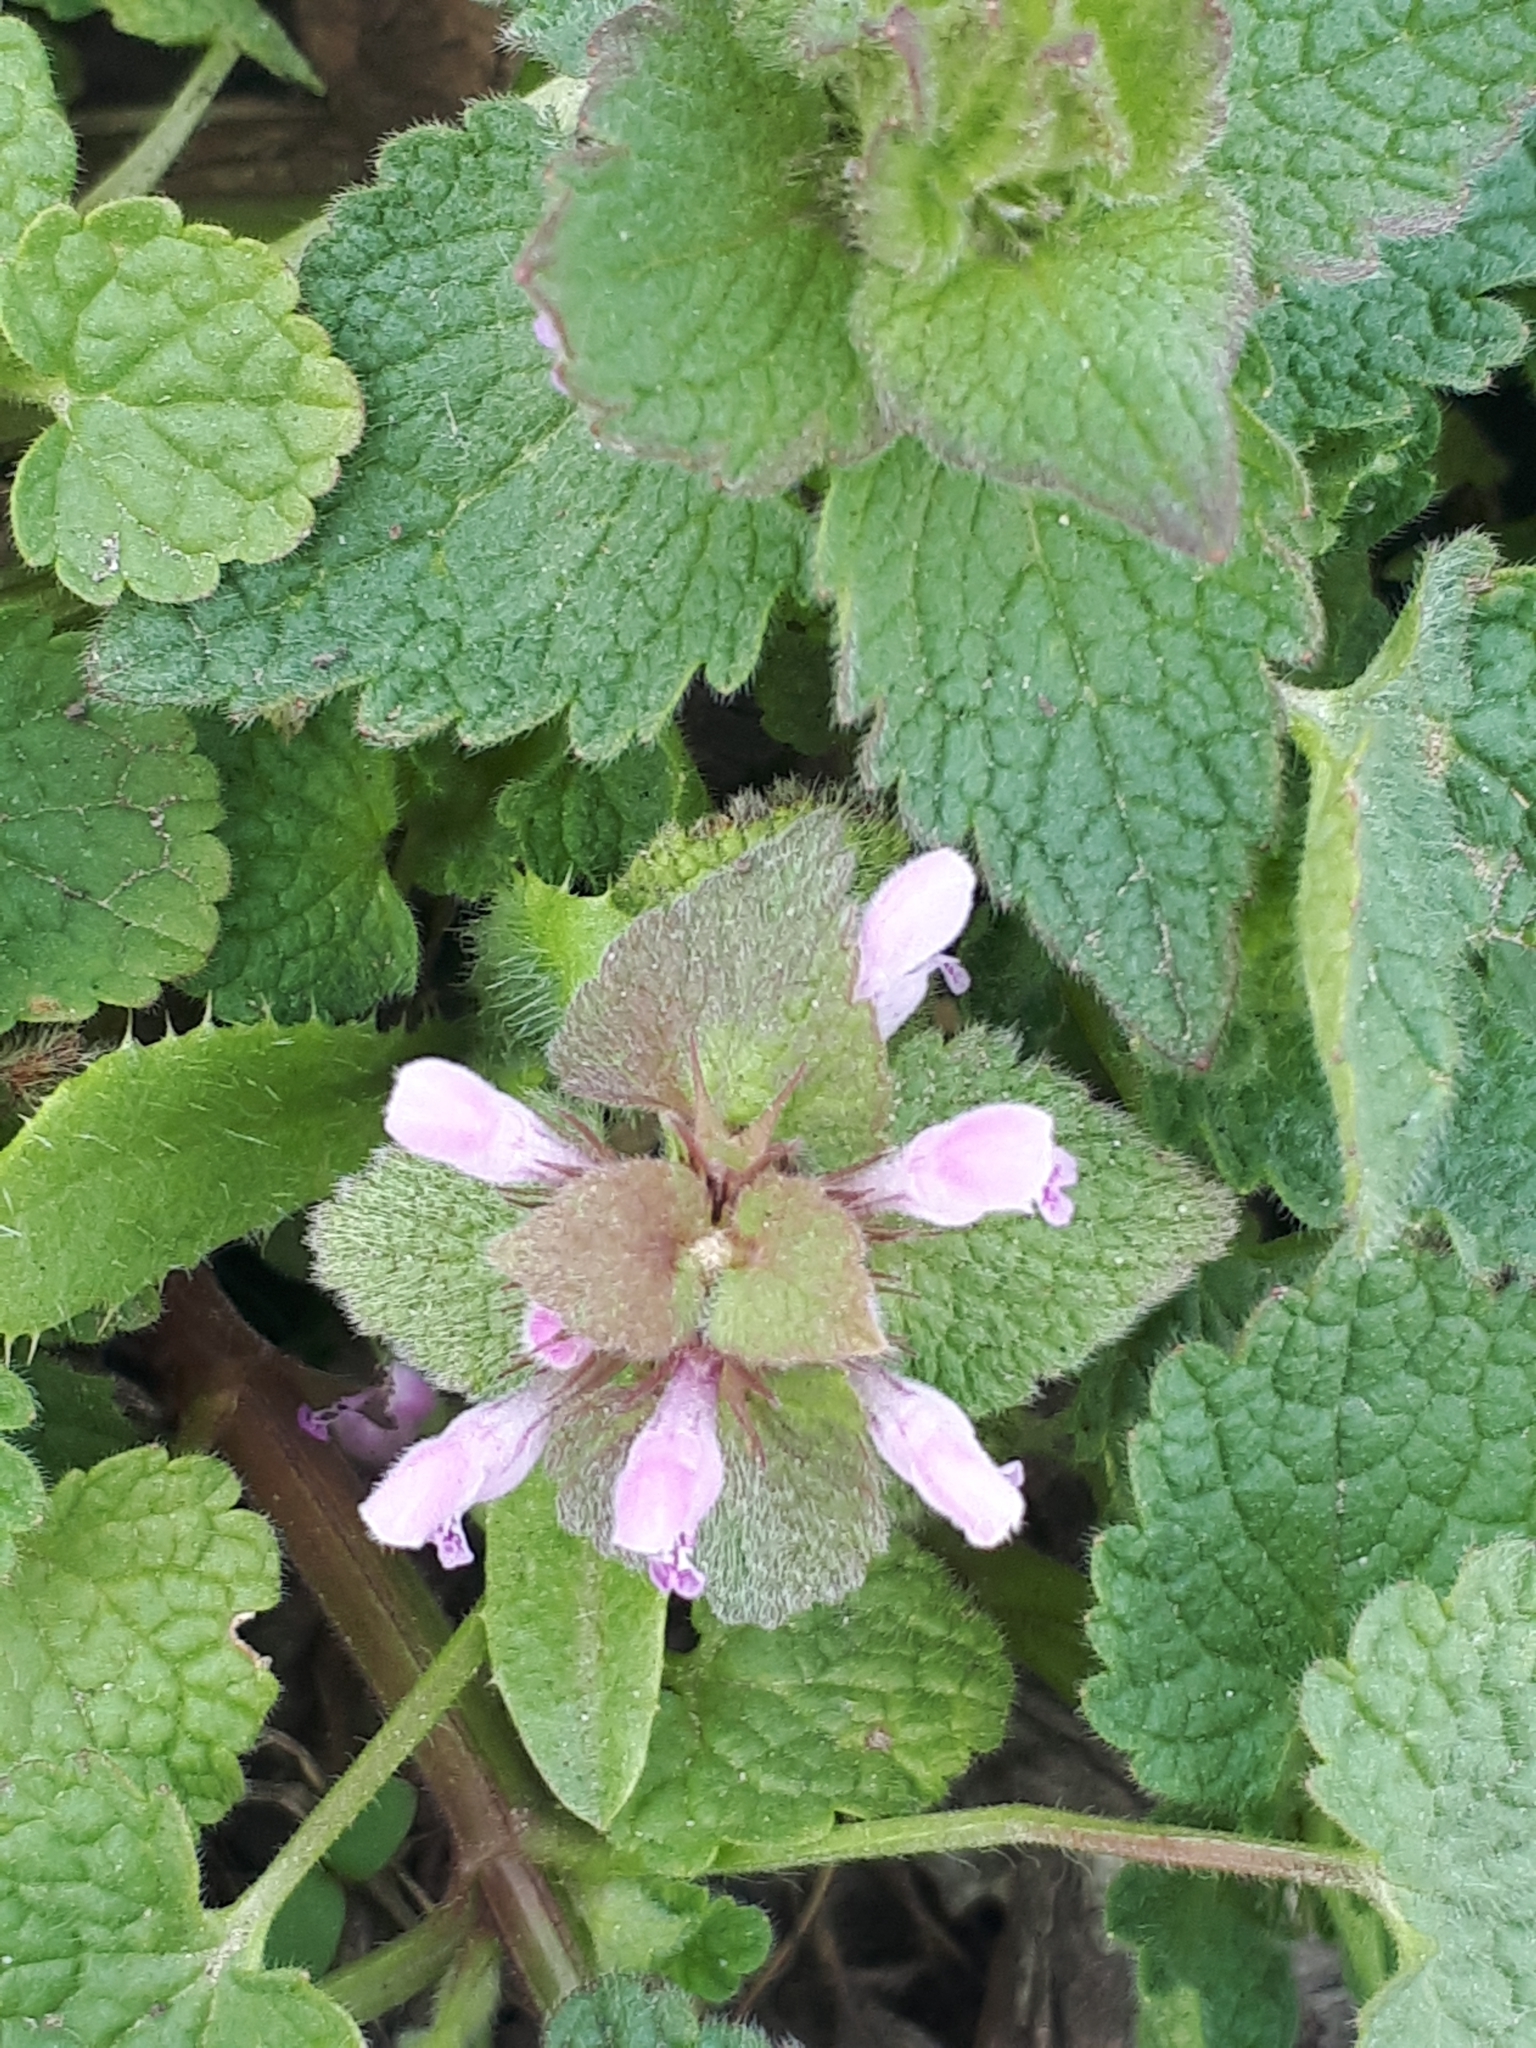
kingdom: Plantae
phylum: Tracheophyta
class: Magnoliopsida
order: Lamiales
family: Lamiaceae
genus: Lamium
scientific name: Lamium purpureum
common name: Red dead-nettle
